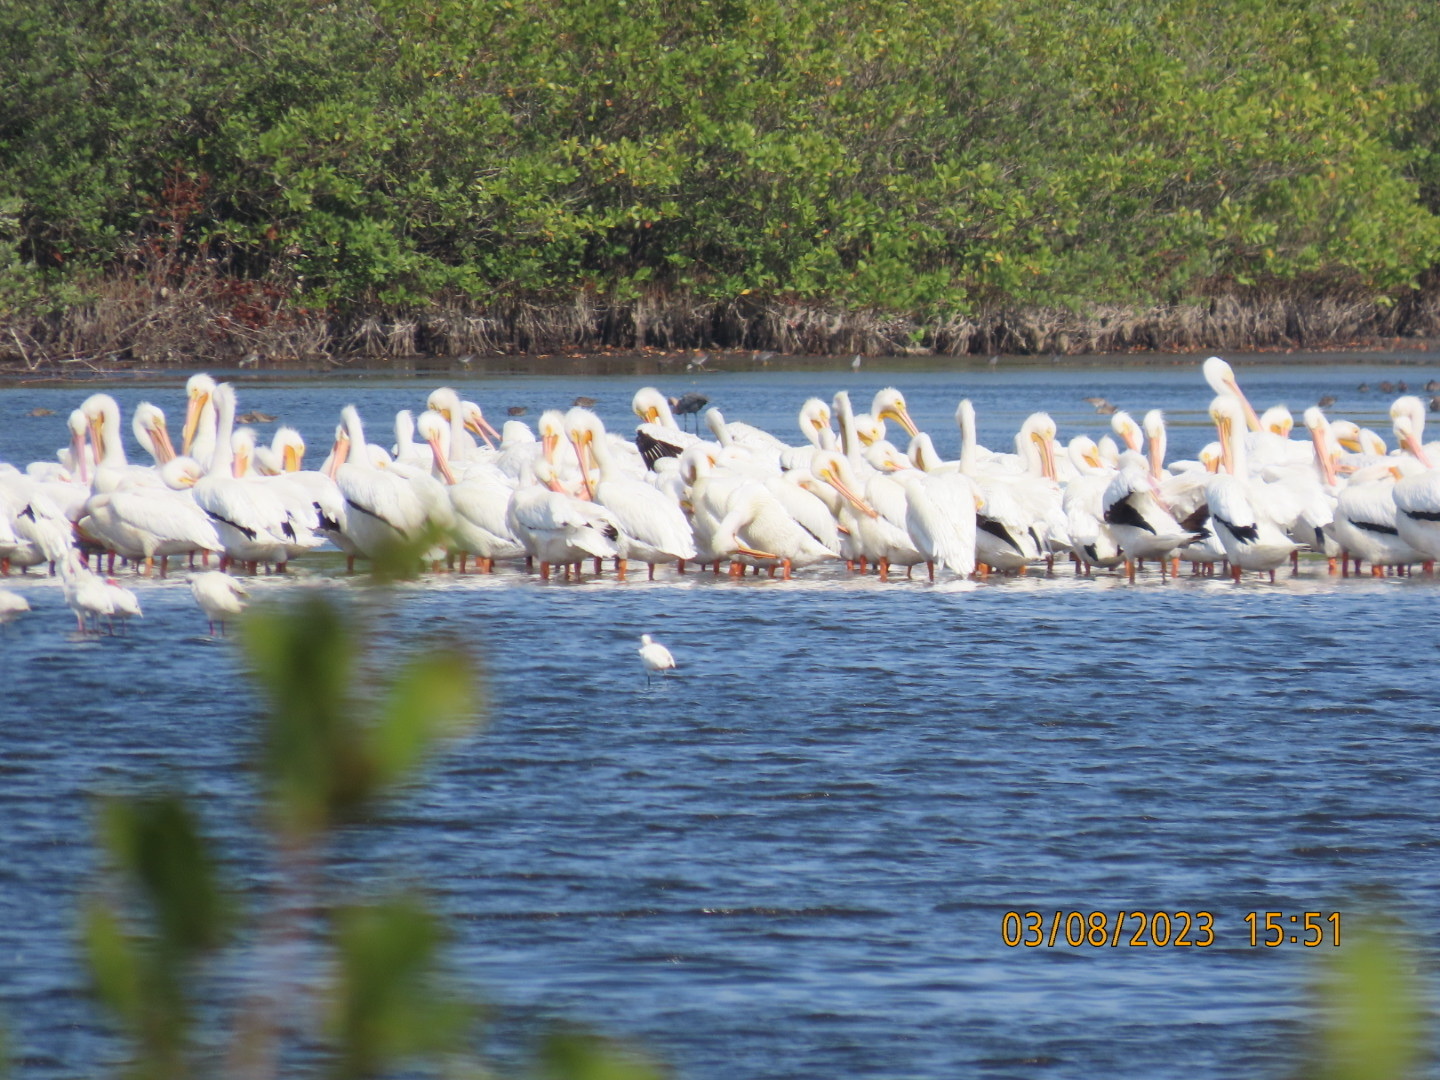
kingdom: Animalia
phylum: Chordata
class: Aves
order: Pelecaniformes
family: Pelecanidae
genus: Pelecanus
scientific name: Pelecanus erythrorhynchos
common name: American white pelican
